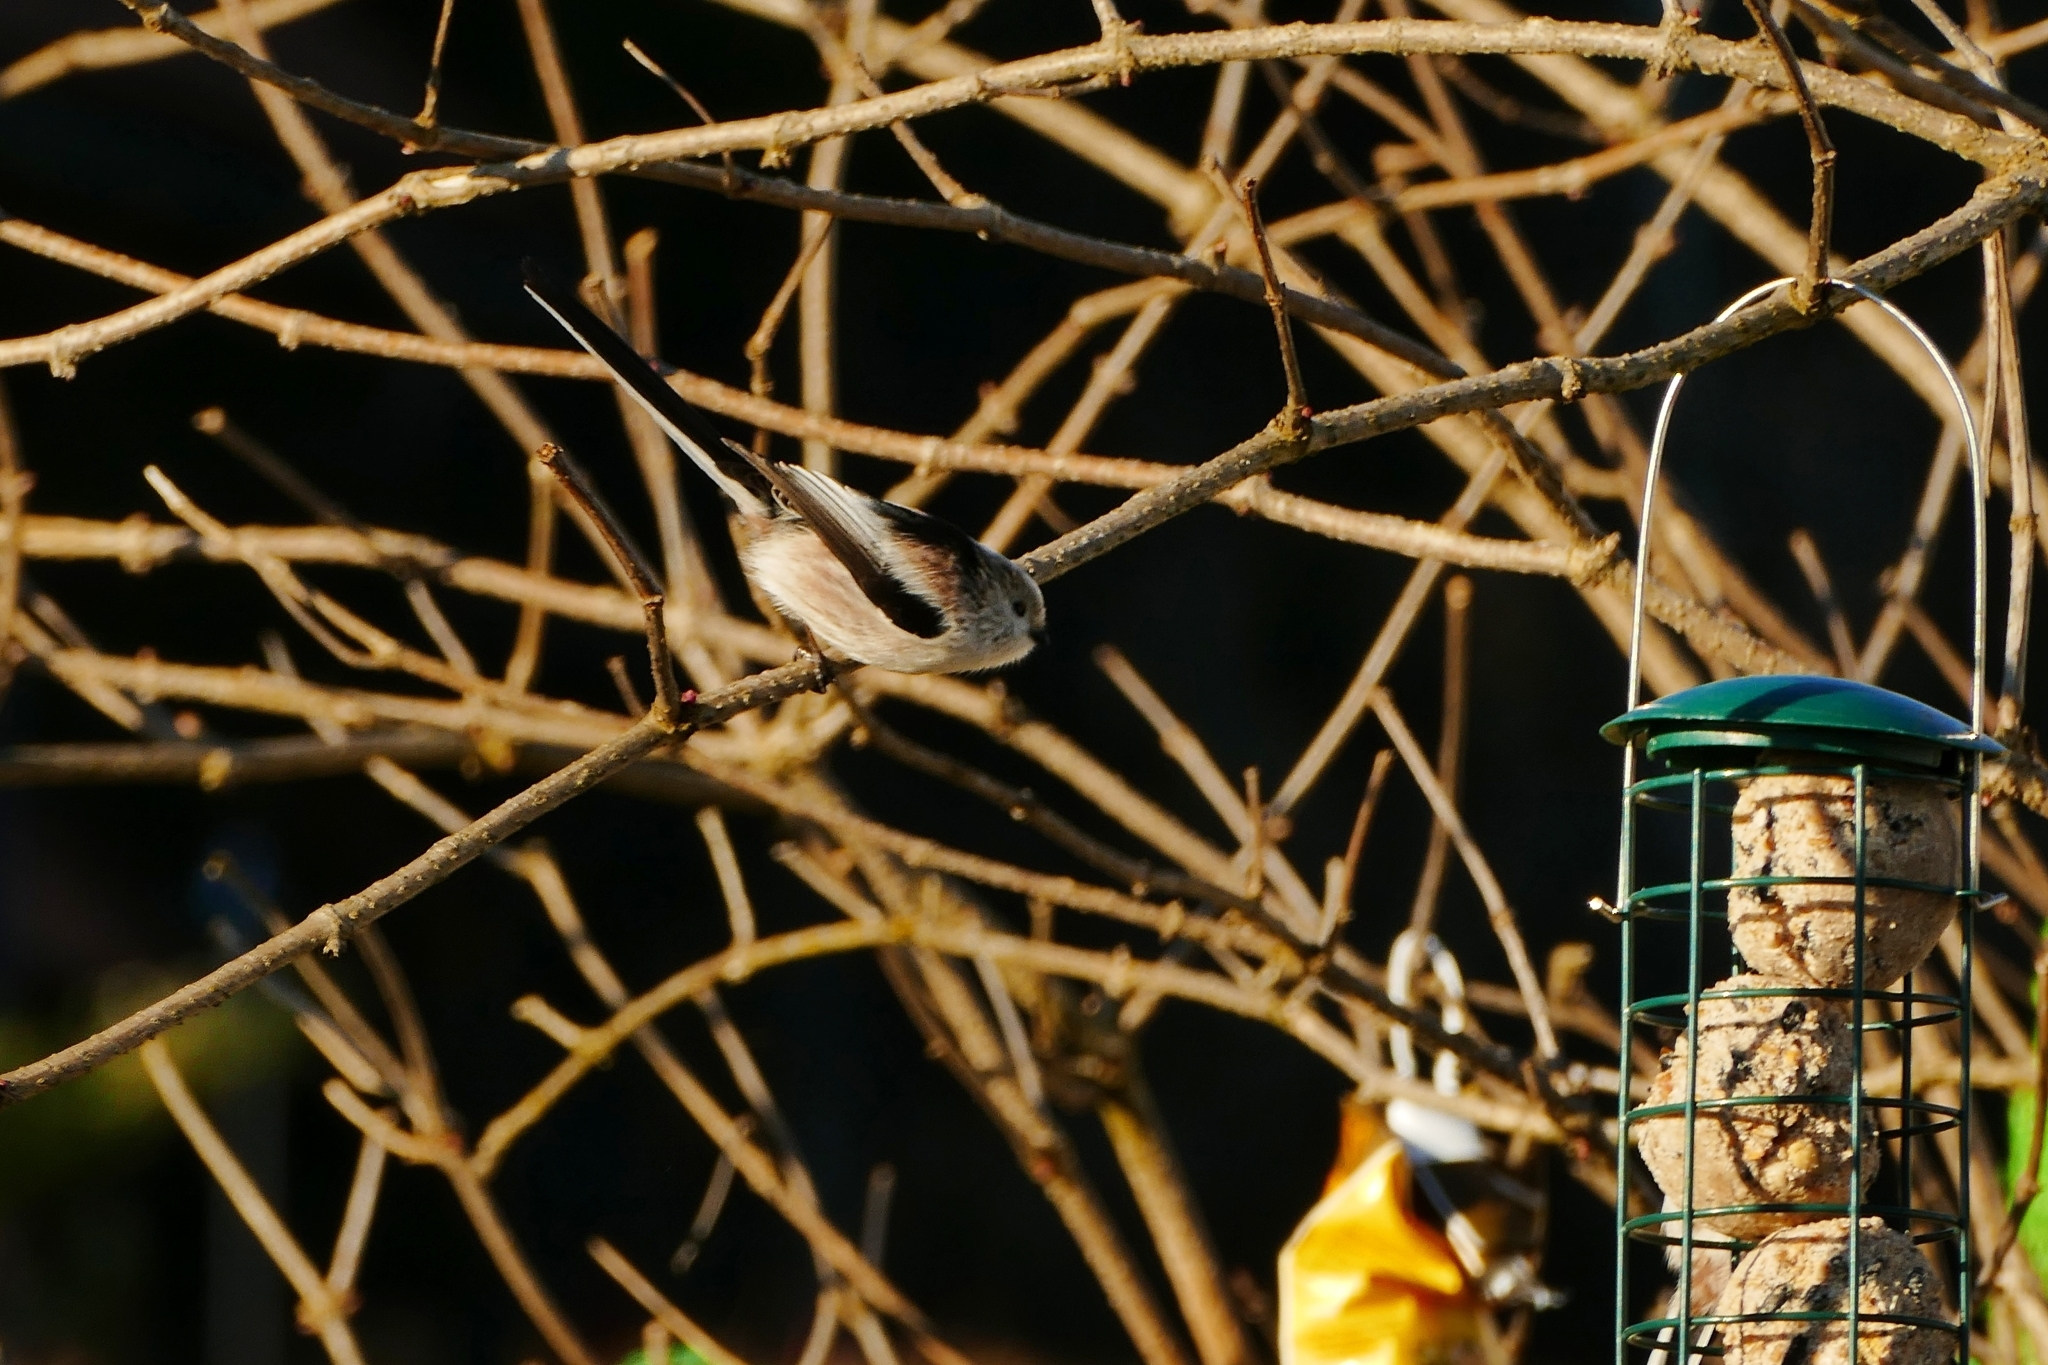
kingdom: Animalia
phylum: Chordata
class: Aves
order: Passeriformes
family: Aegithalidae
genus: Aegithalos
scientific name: Aegithalos caudatus
